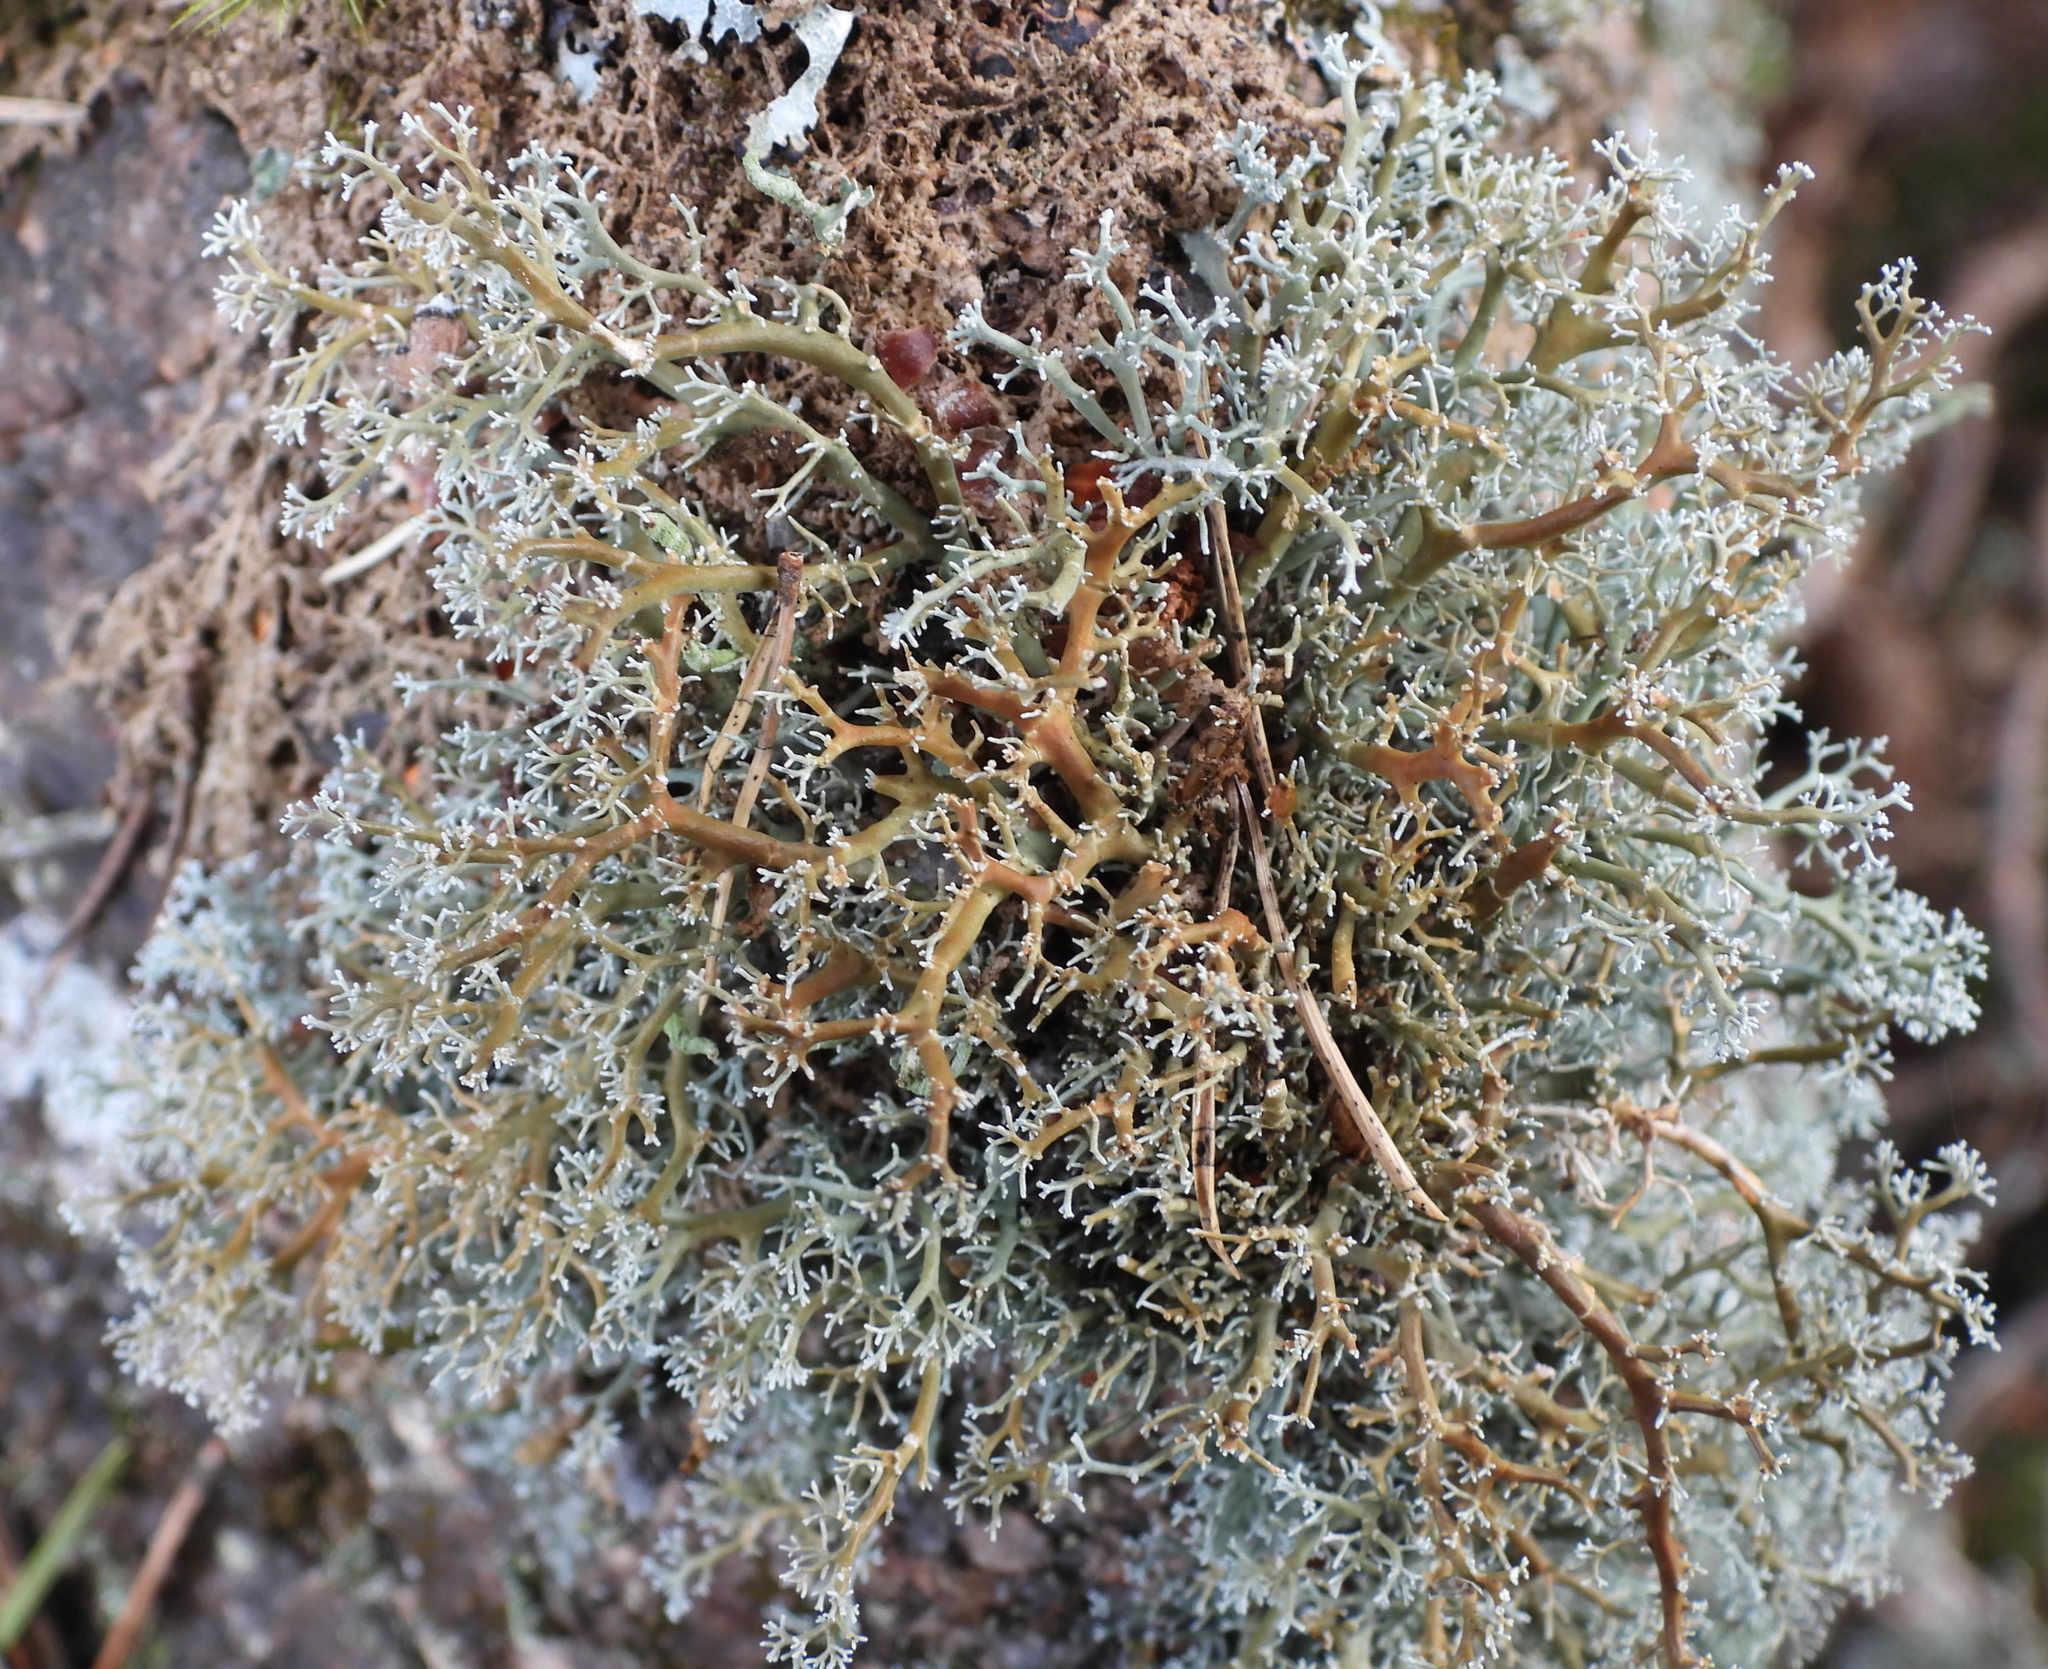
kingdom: Fungi
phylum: Ascomycota
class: Lecanoromycetes
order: Lecanorales
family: Sphaerophoraceae
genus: Sphaerophorus
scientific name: Sphaerophorus globosus
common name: Globe ball lichen
